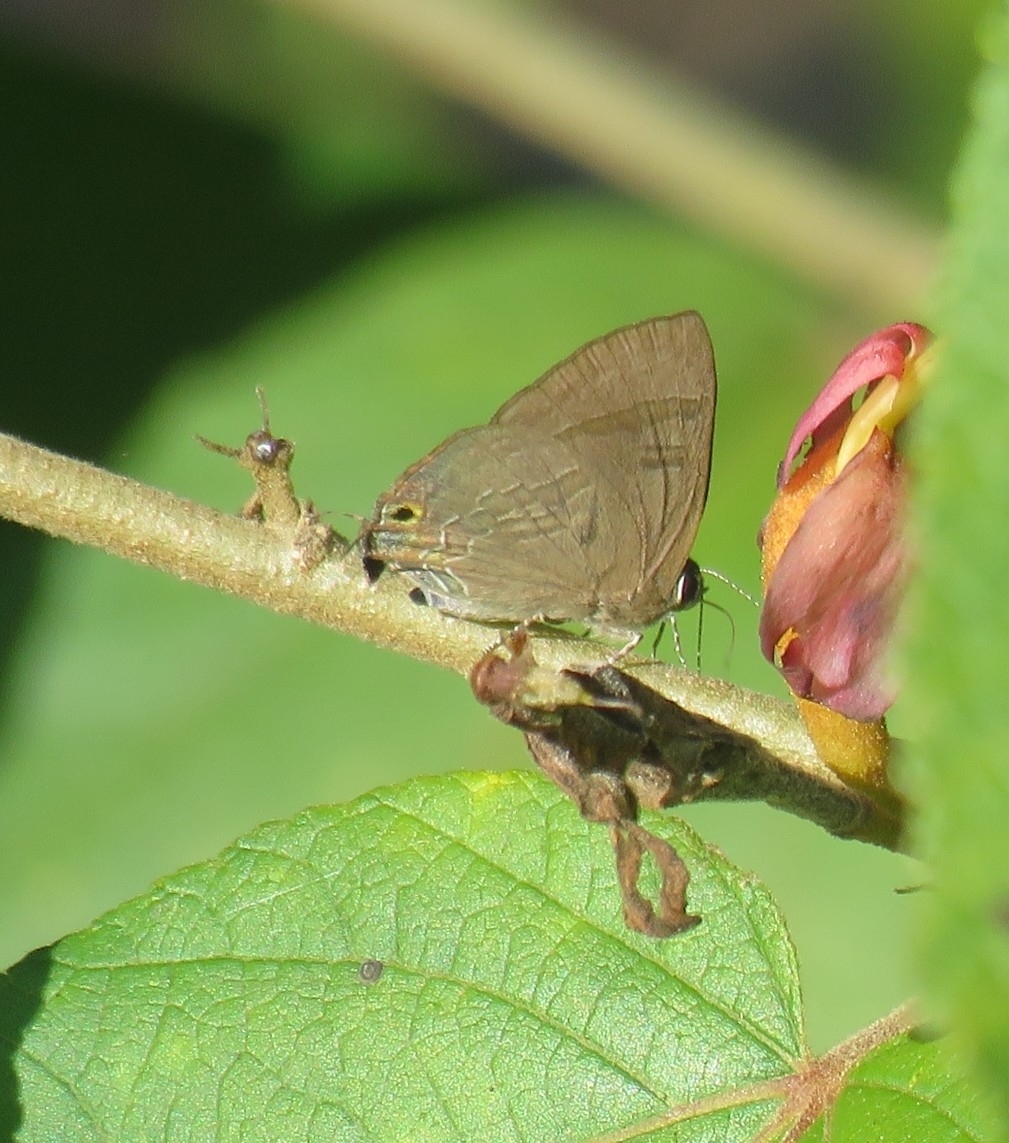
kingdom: Animalia
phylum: Arthropoda
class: Insecta
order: Lepidoptera
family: Lycaenidae
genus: Rapala
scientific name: Rapala varuna
